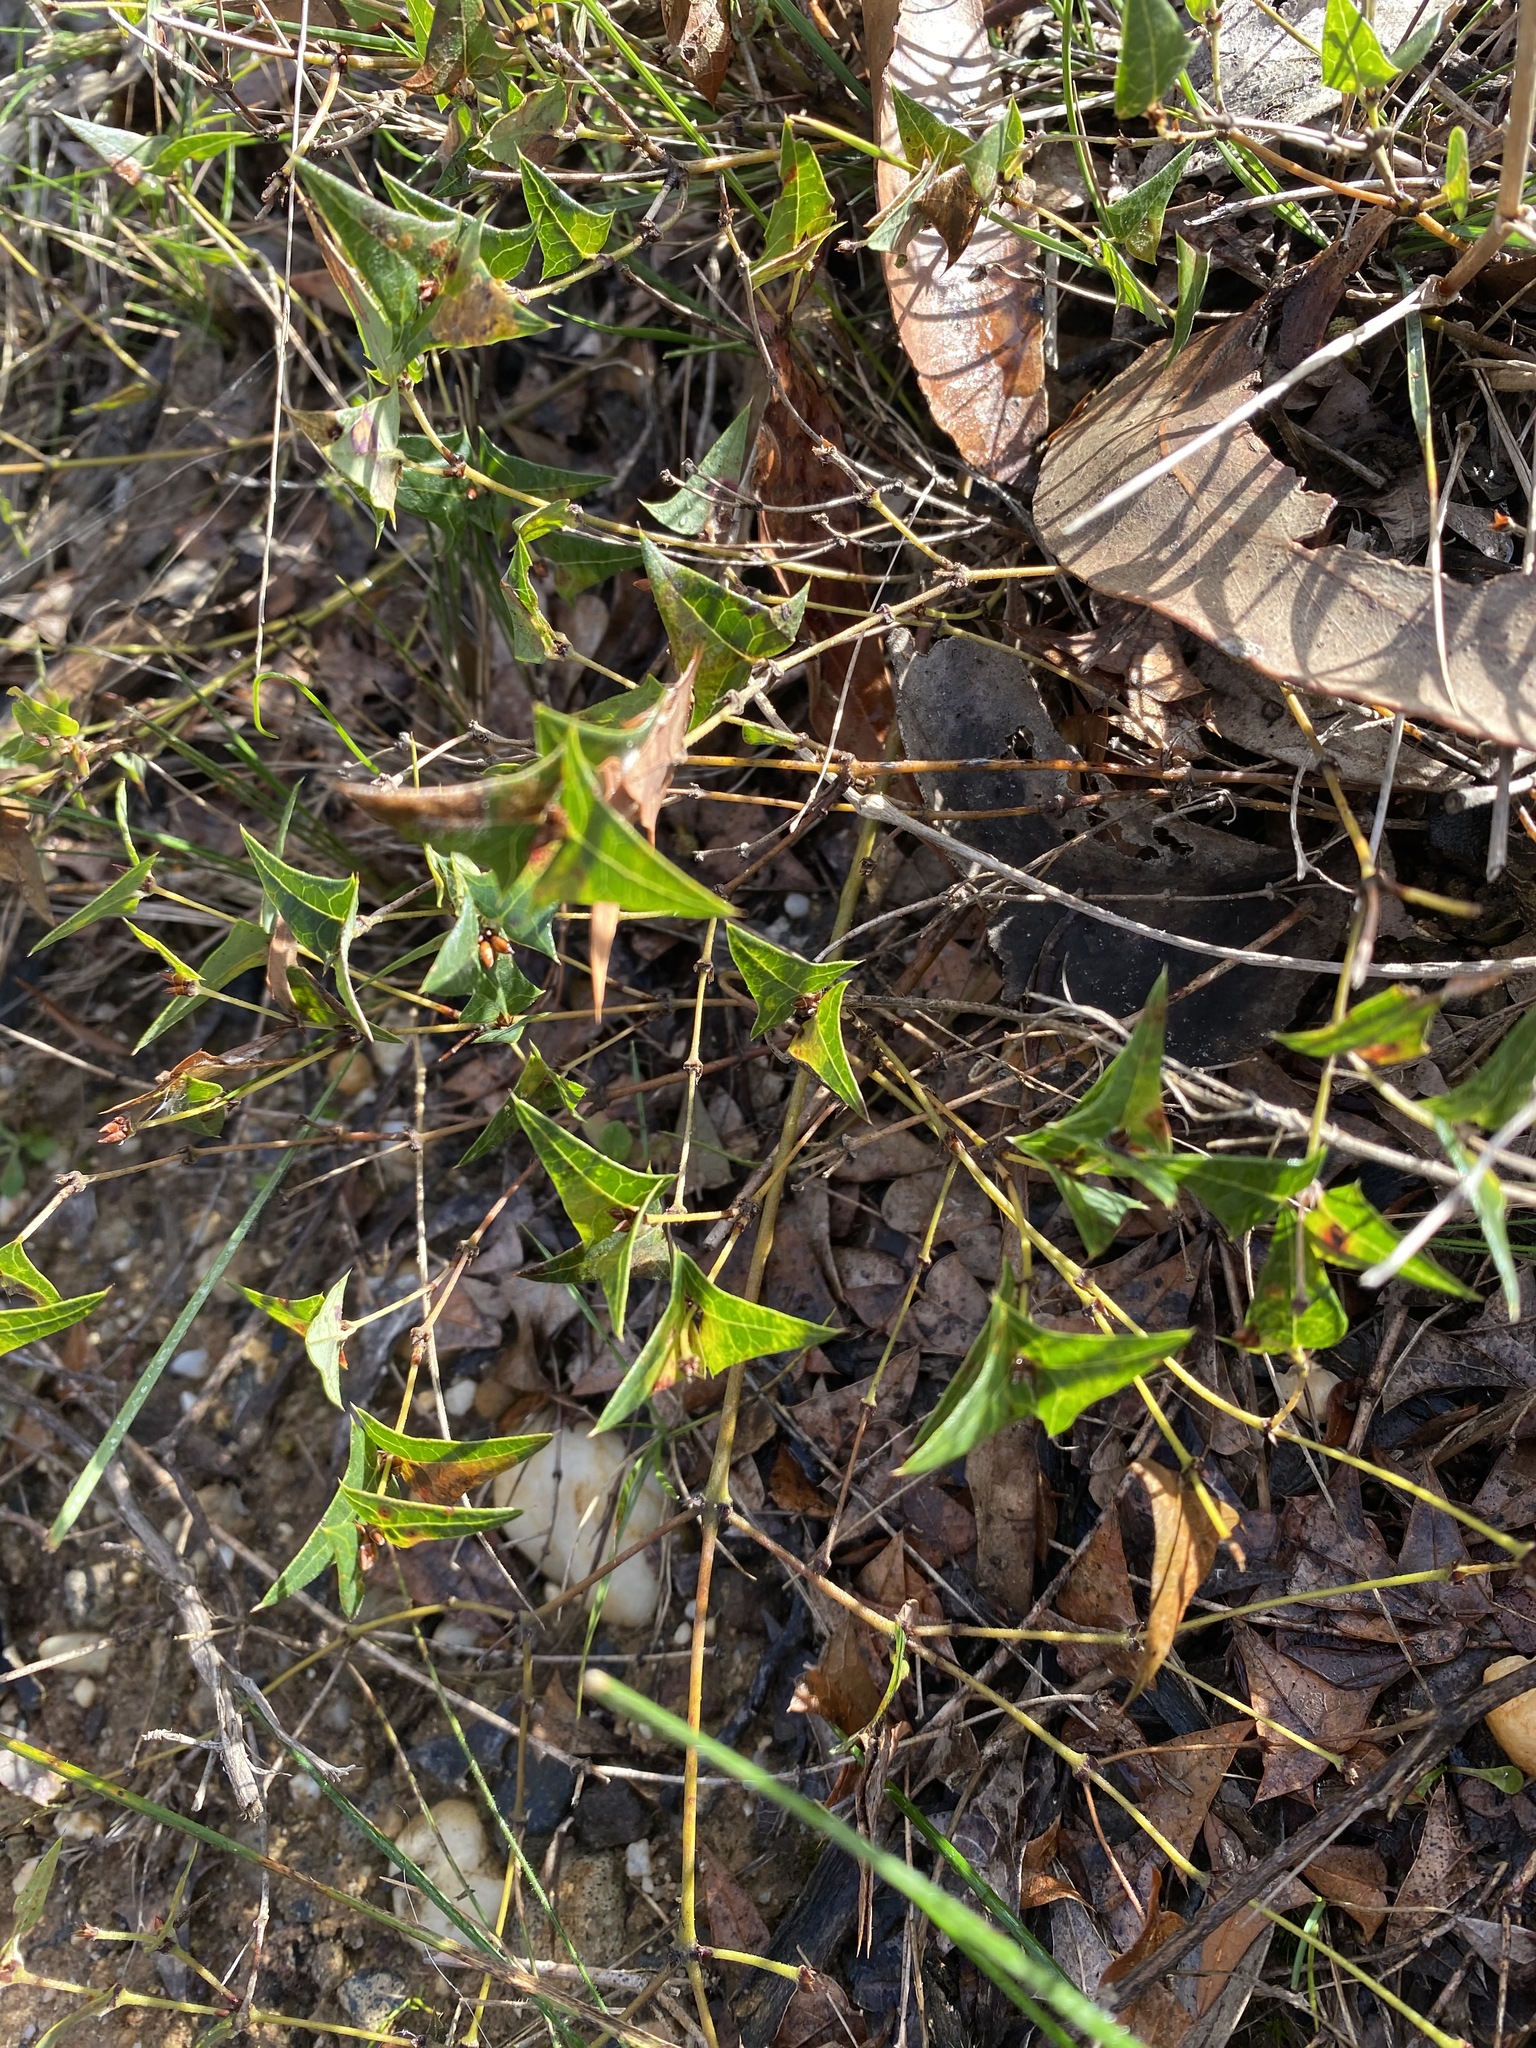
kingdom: Plantae
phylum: Tracheophyta
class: Magnoliopsida
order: Fabales
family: Fabaceae
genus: Platylobium
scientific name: Platylobium obtusangulum
